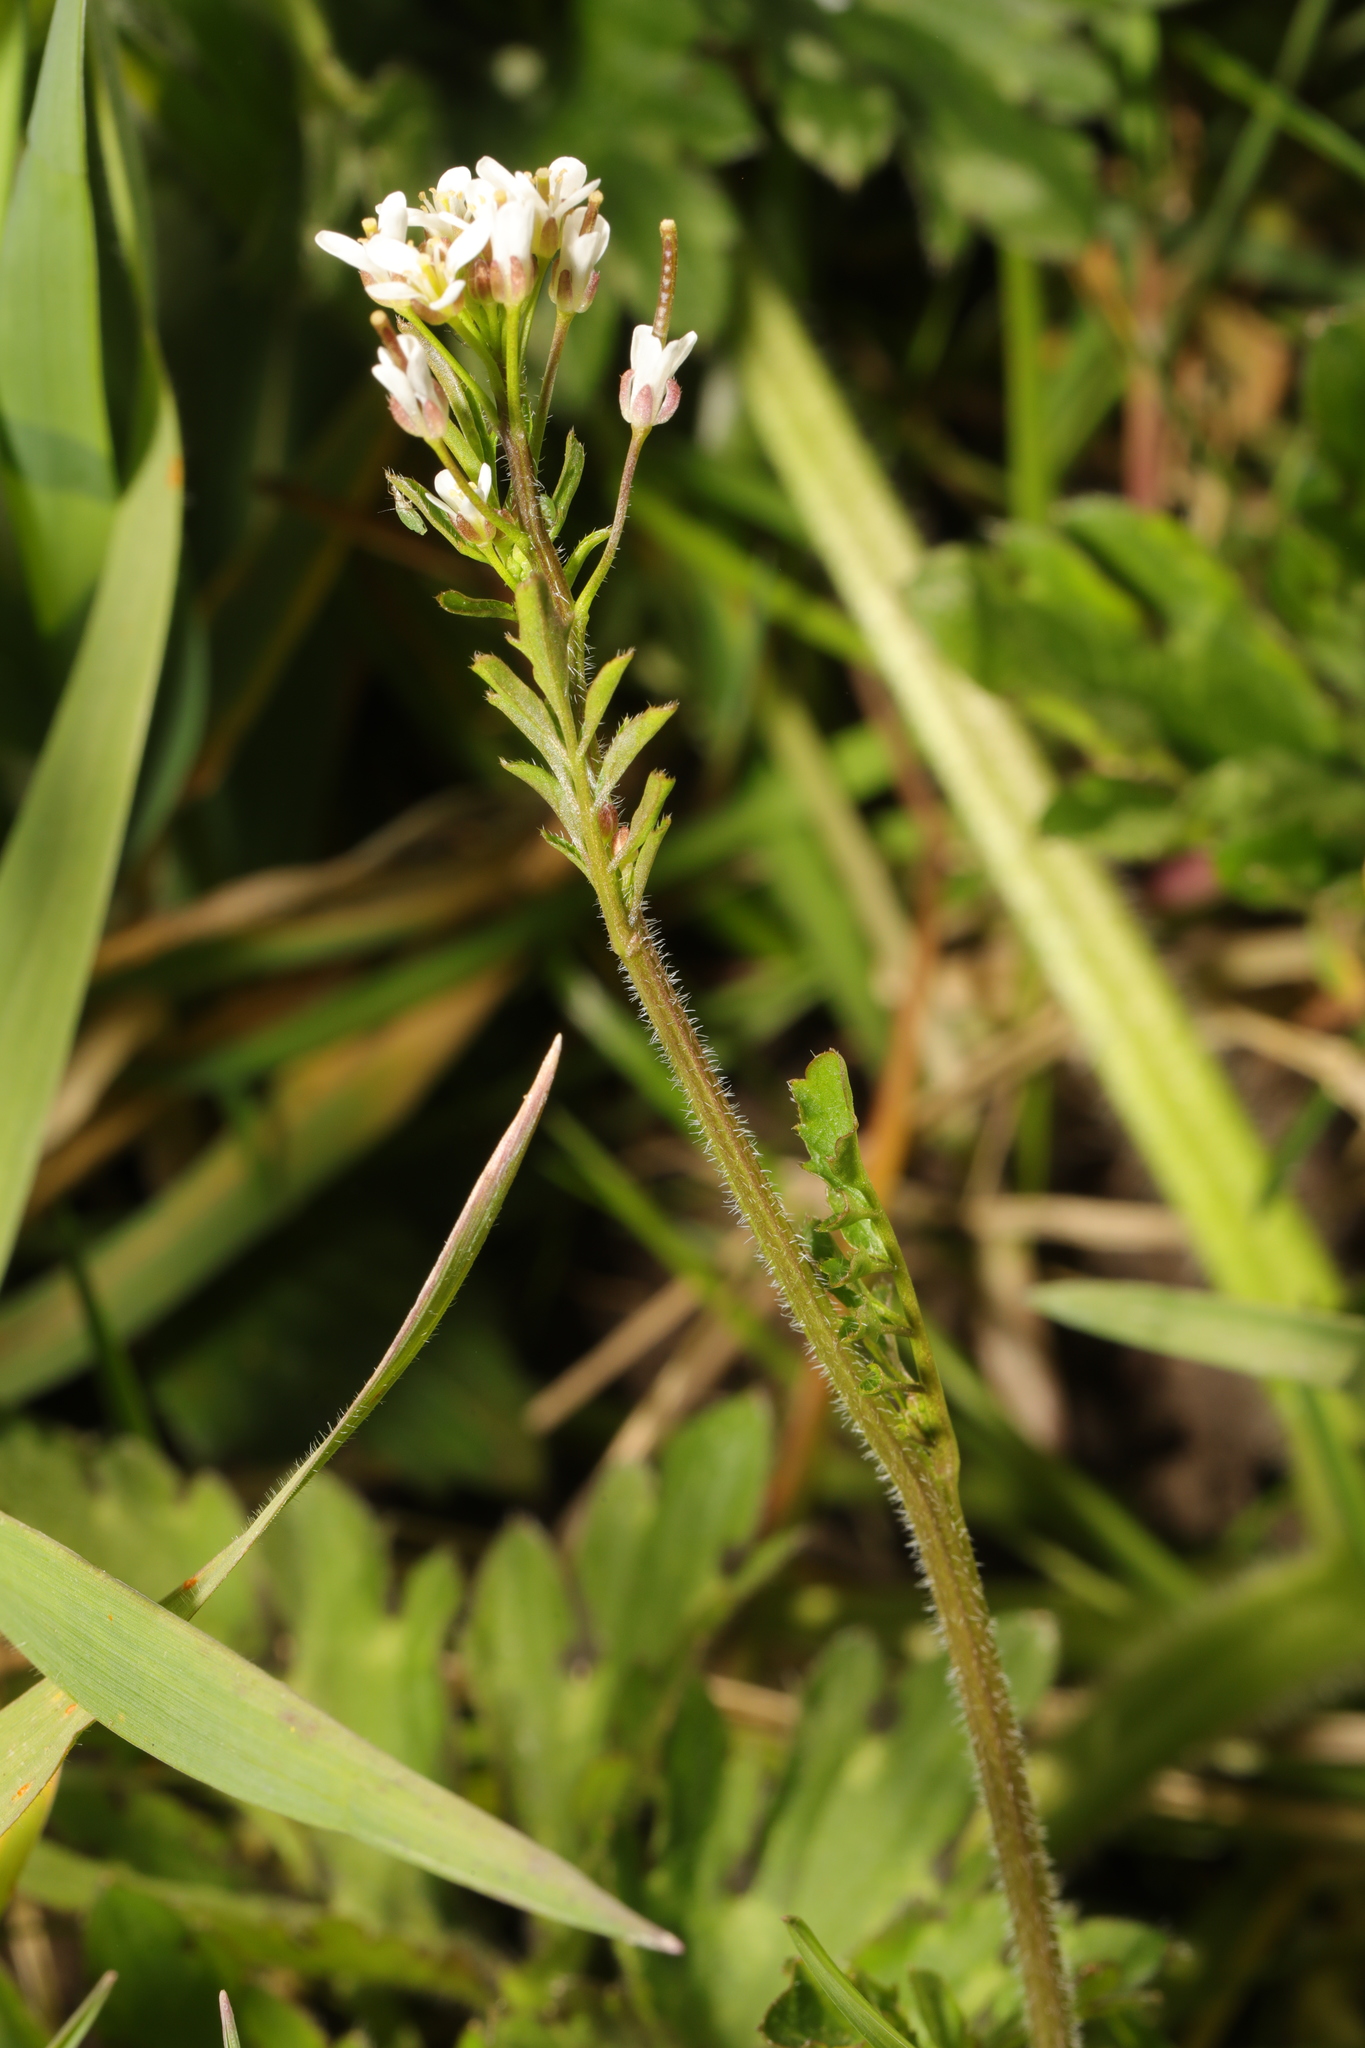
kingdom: Plantae
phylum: Tracheophyta
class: Magnoliopsida
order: Brassicales
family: Brassicaceae
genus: Cardamine
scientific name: Cardamine flexuosa
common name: Woodland bittercress
